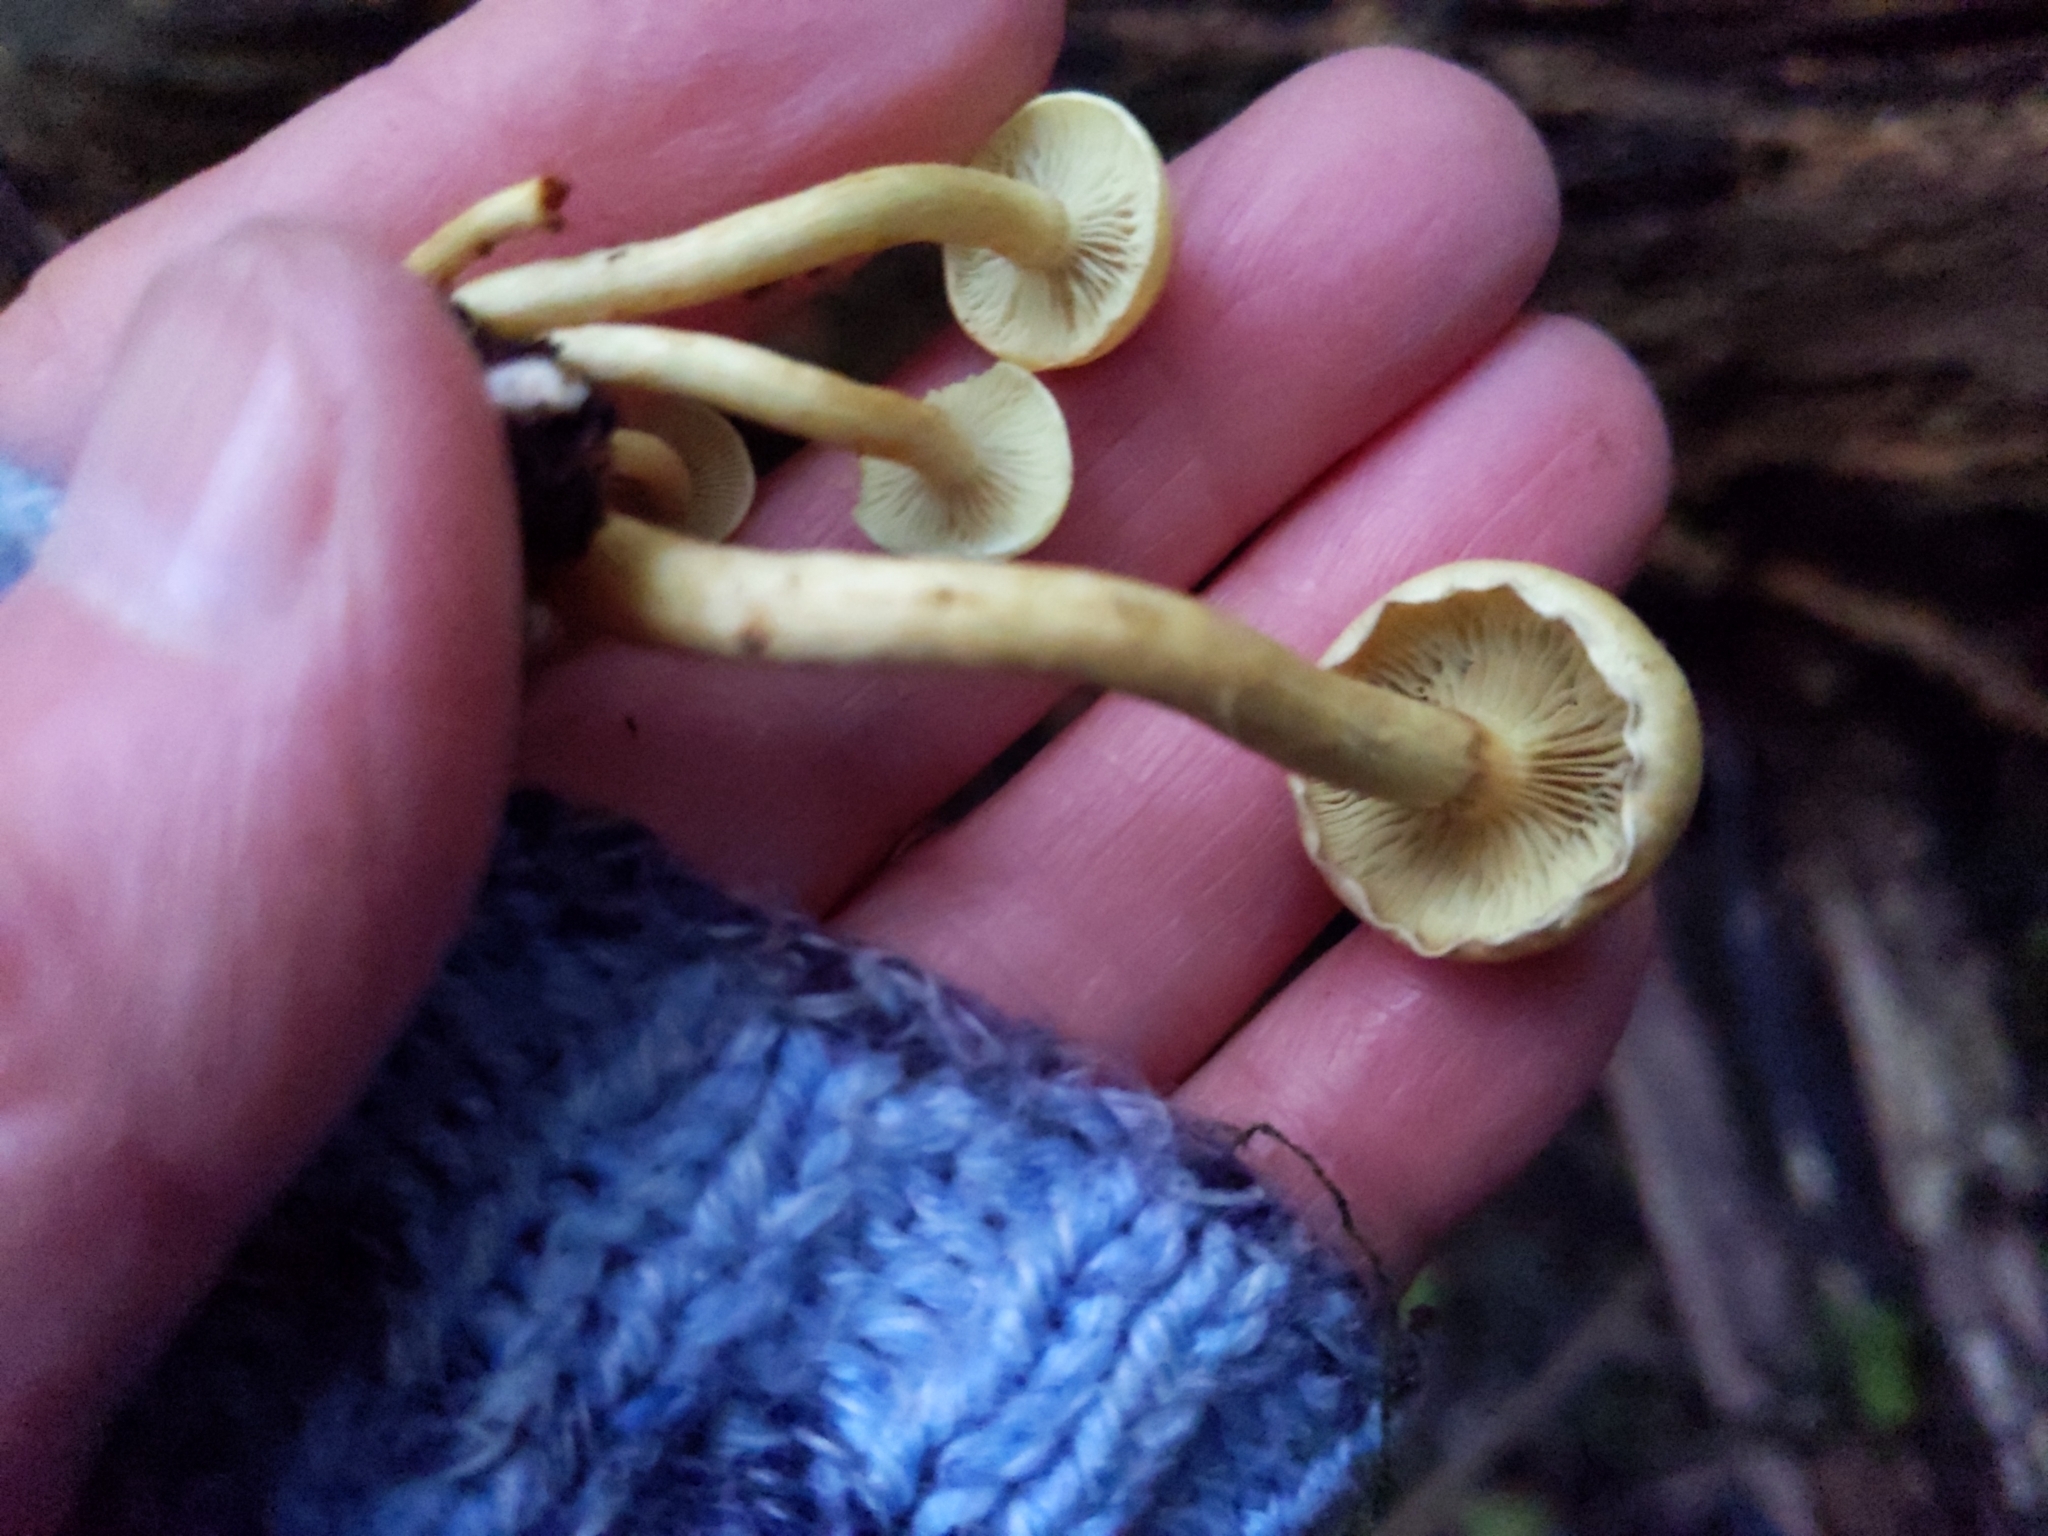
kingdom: Fungi
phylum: Basidiomycota
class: Agaricomycetes
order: Agaricales
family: Strophariaceae
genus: Hypholoma
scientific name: Hypholoma fasciculare
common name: Sulphur tuft
